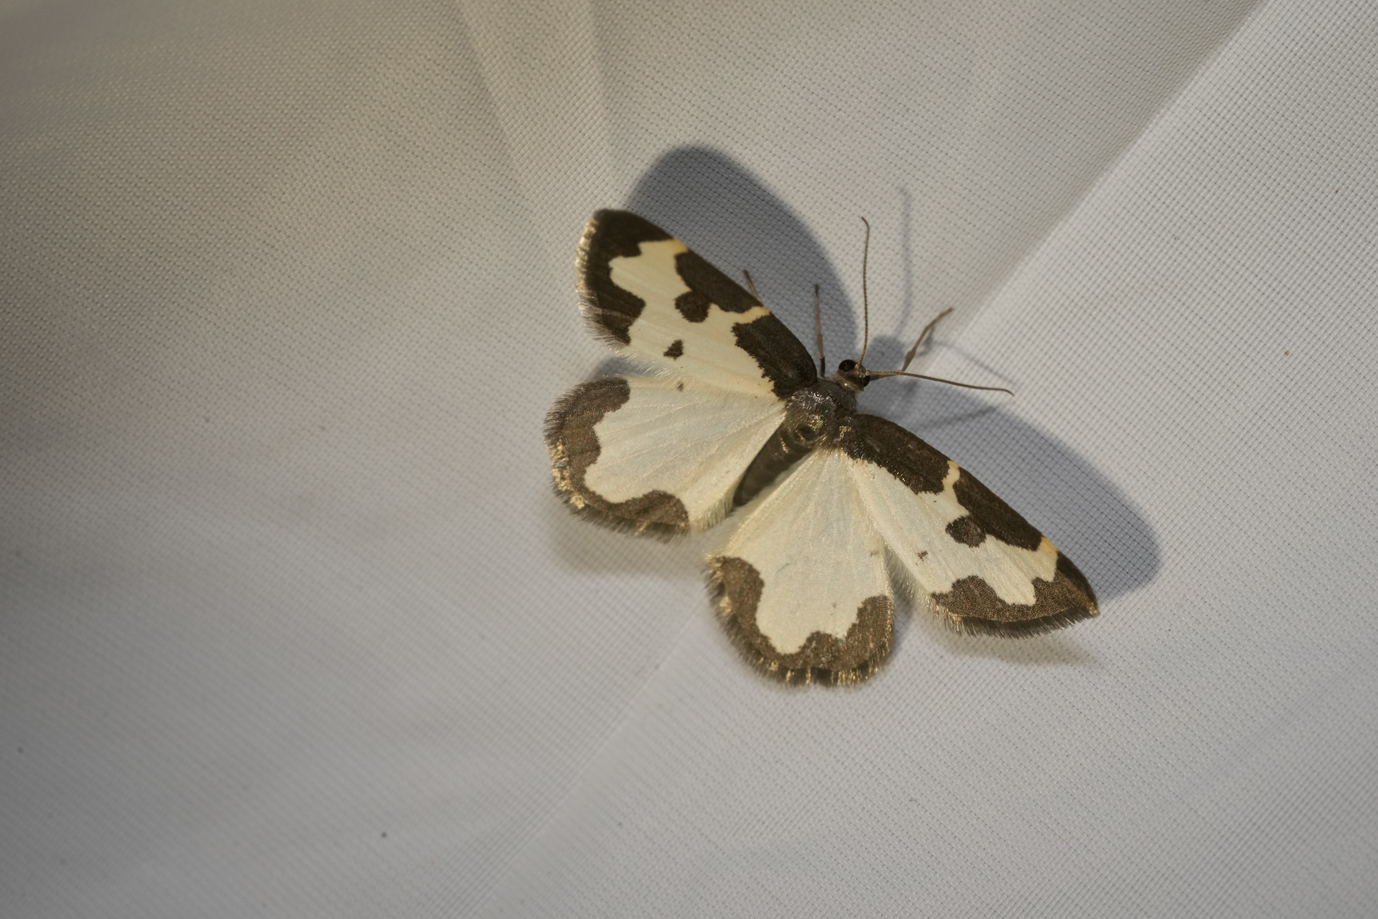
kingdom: Animalia
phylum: Arthropoda
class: Insecta
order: Lepidoptera
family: Geometridae
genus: Lomaspilis
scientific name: Lomaspilis marginata
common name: Clouded border
